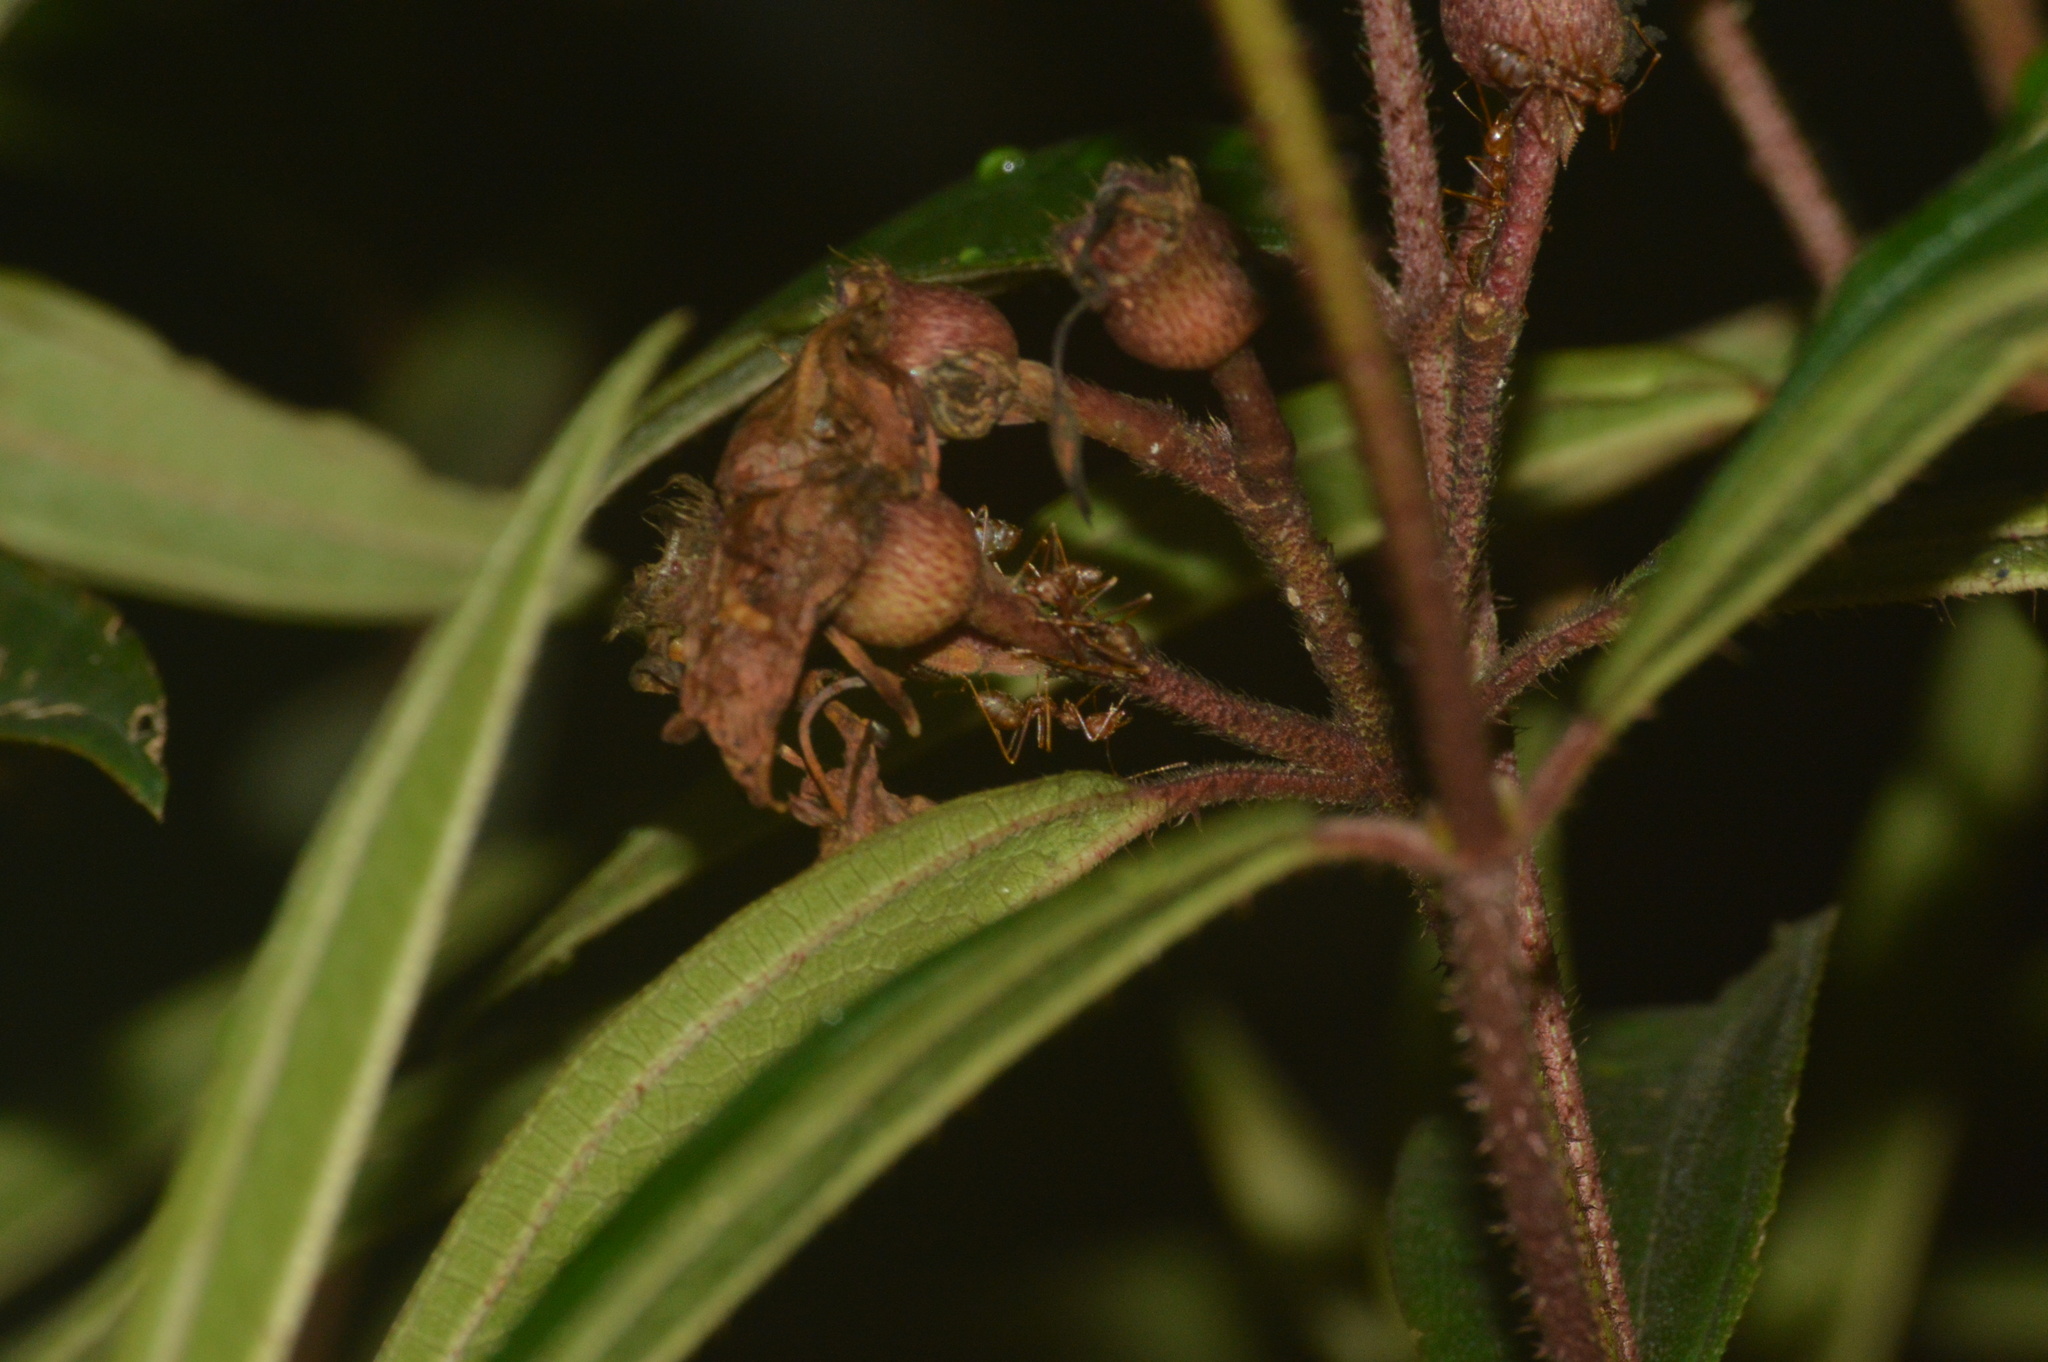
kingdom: Animalia
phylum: Arthropoda
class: Insecta
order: Hymenoptera
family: Formicidae
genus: Oecophylla
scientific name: Oecophylla smaragdina
